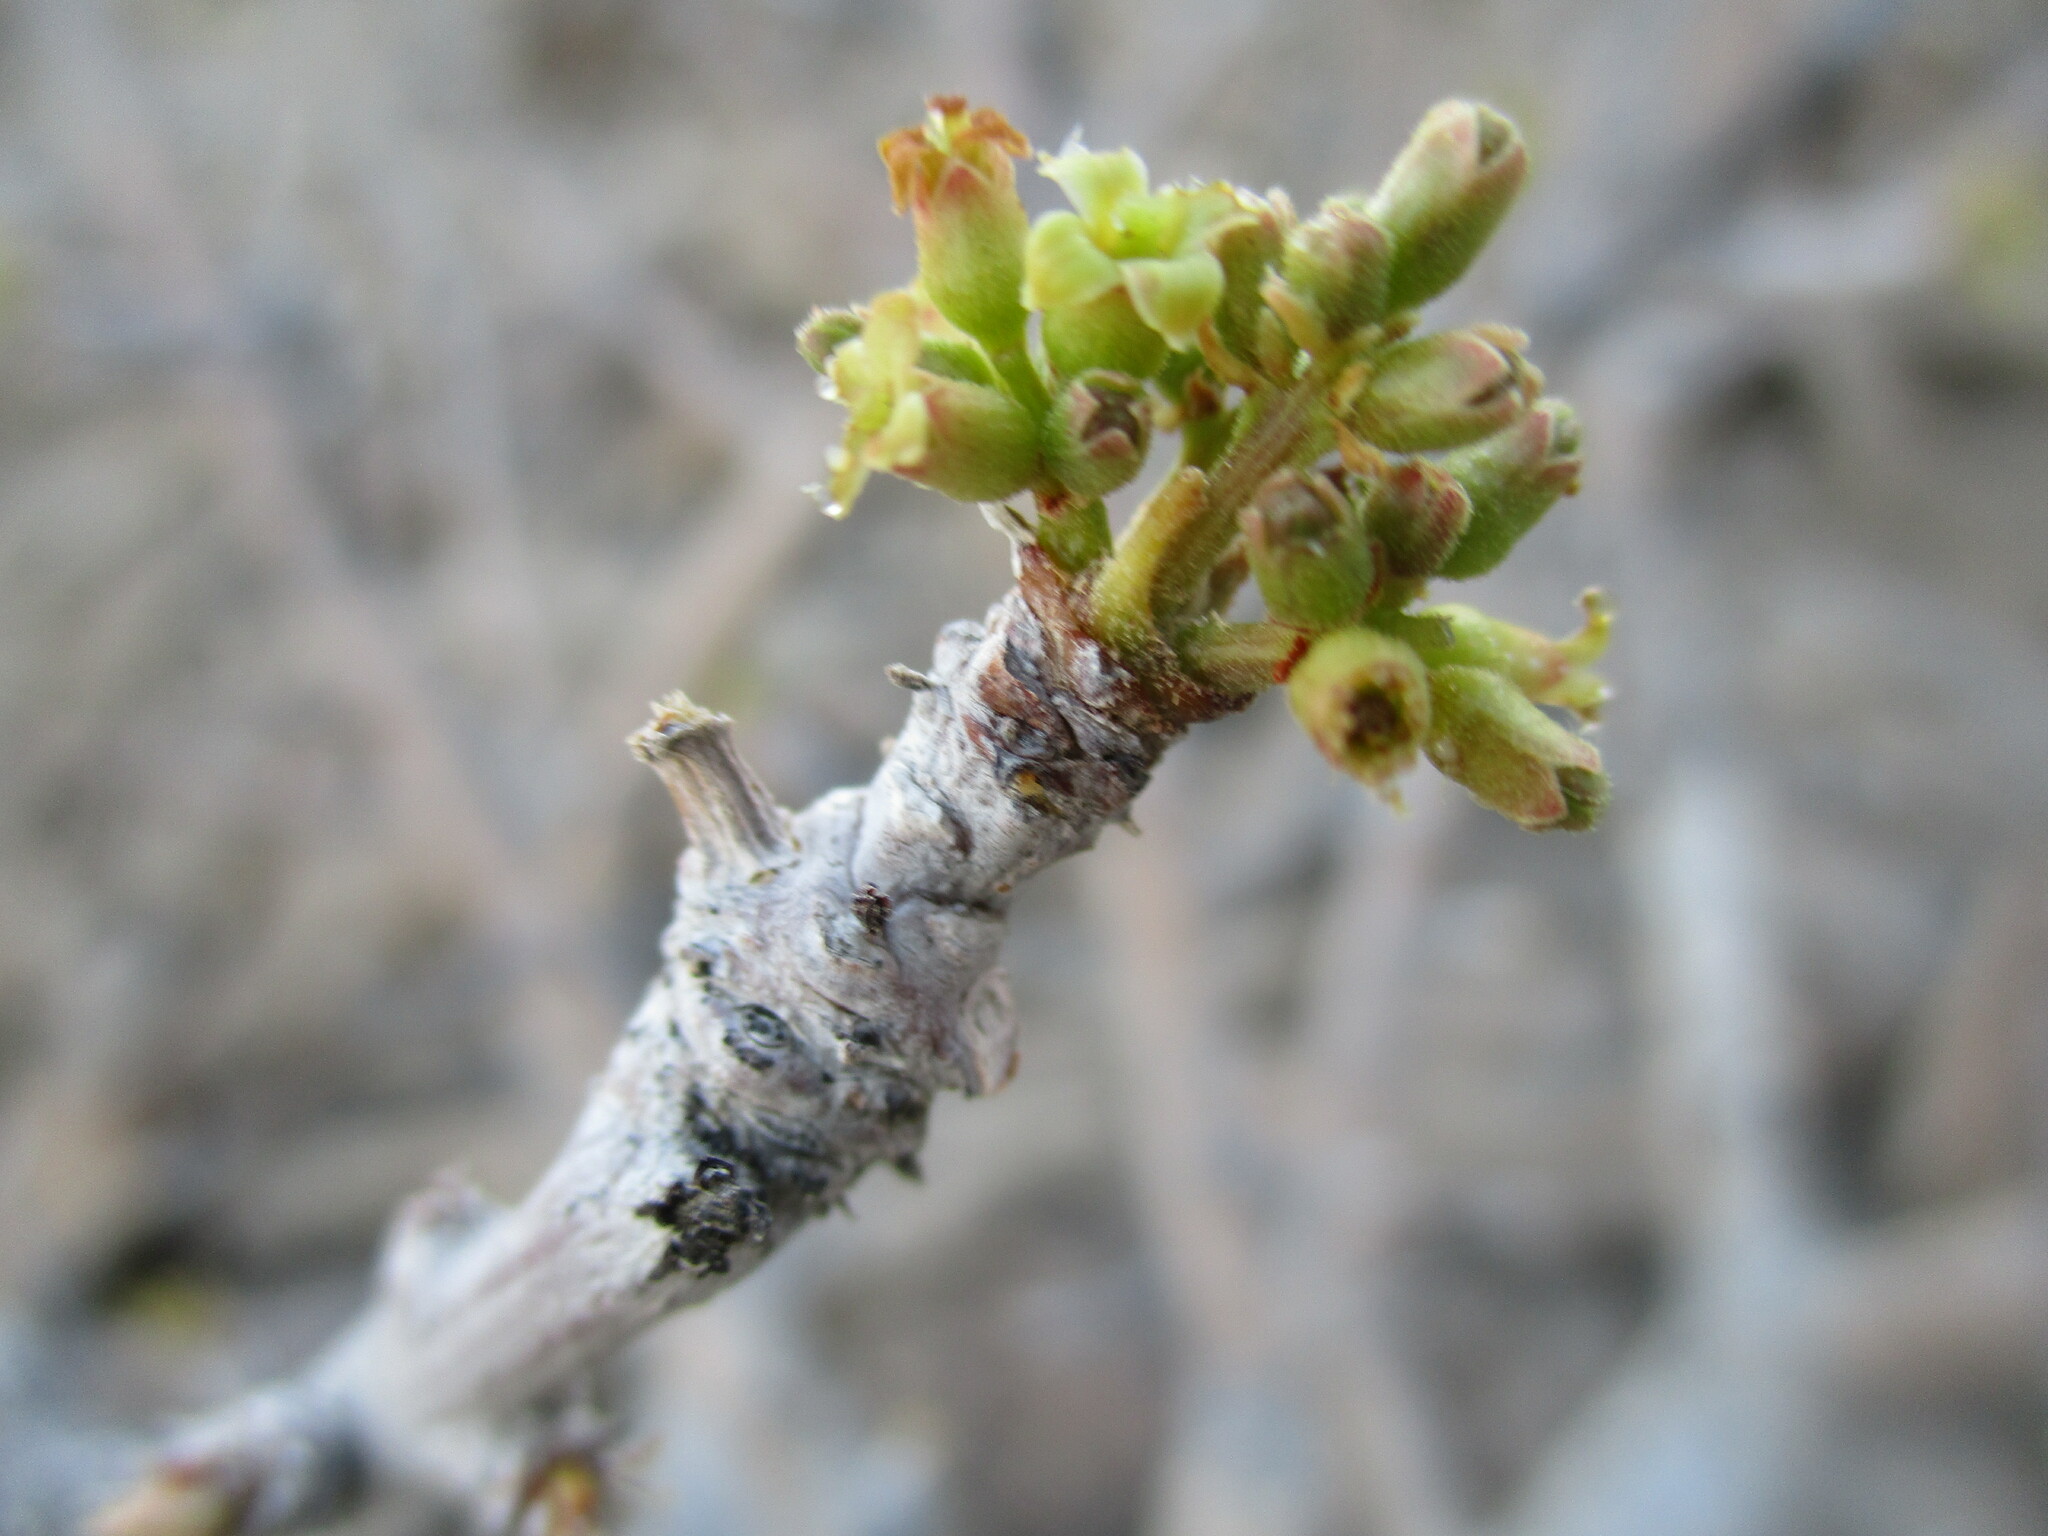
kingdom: Plantae
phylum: Tracheophyta
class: Magnoliopsida
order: Sapindales
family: Burseraceae
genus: Commiphora
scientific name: Commiphora saxicola
